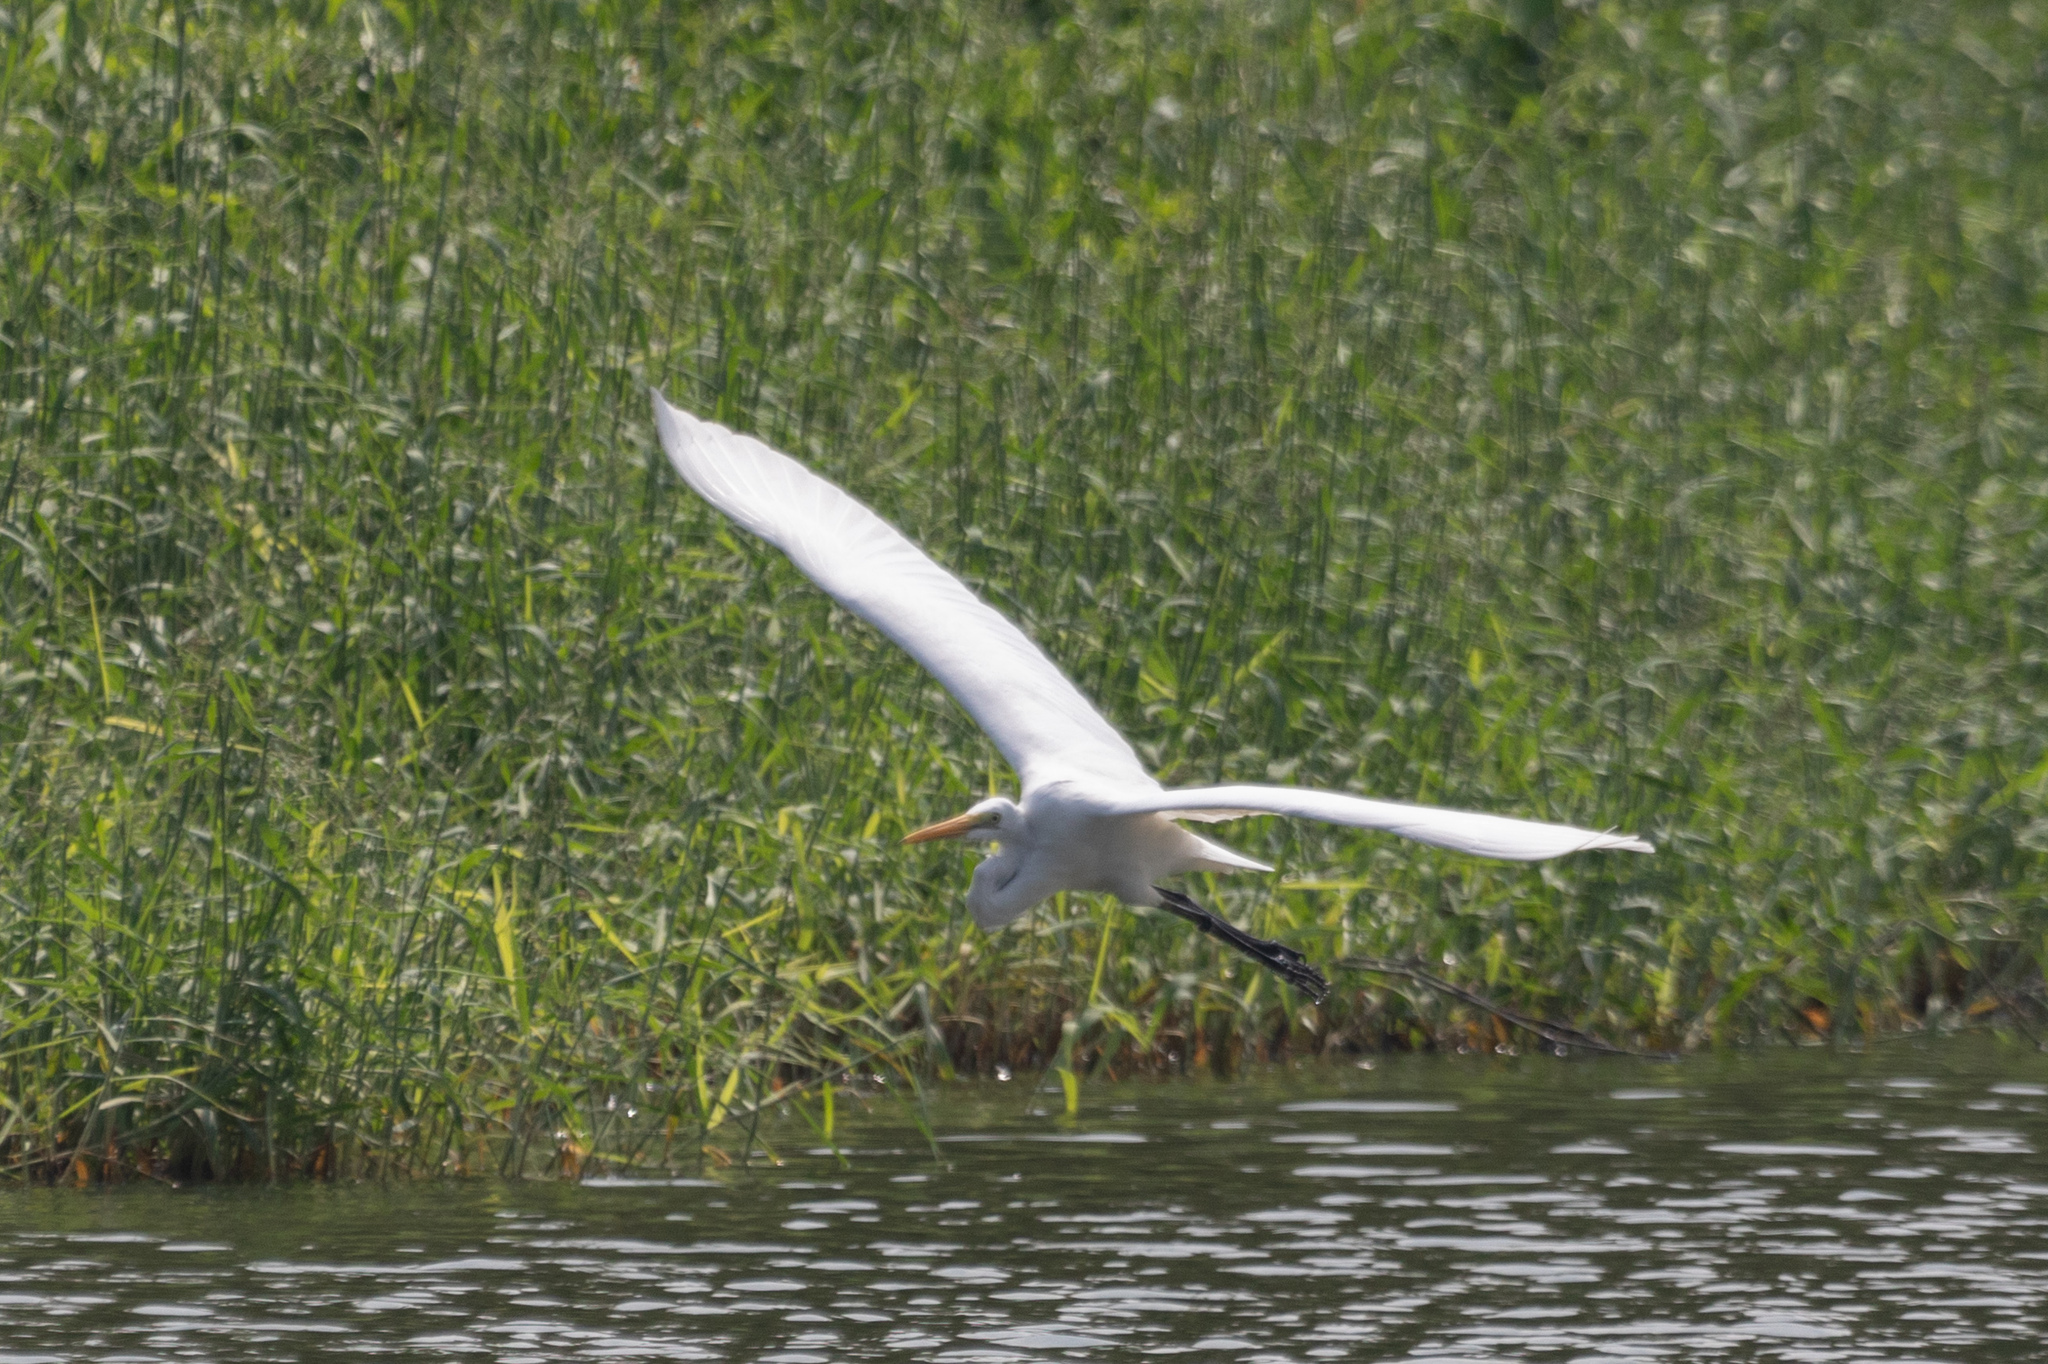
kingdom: Animalia
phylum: Chordata
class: Aves
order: Pelecaniformes
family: Ardeidae
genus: Ardea
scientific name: Ardea alba
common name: Great egret
